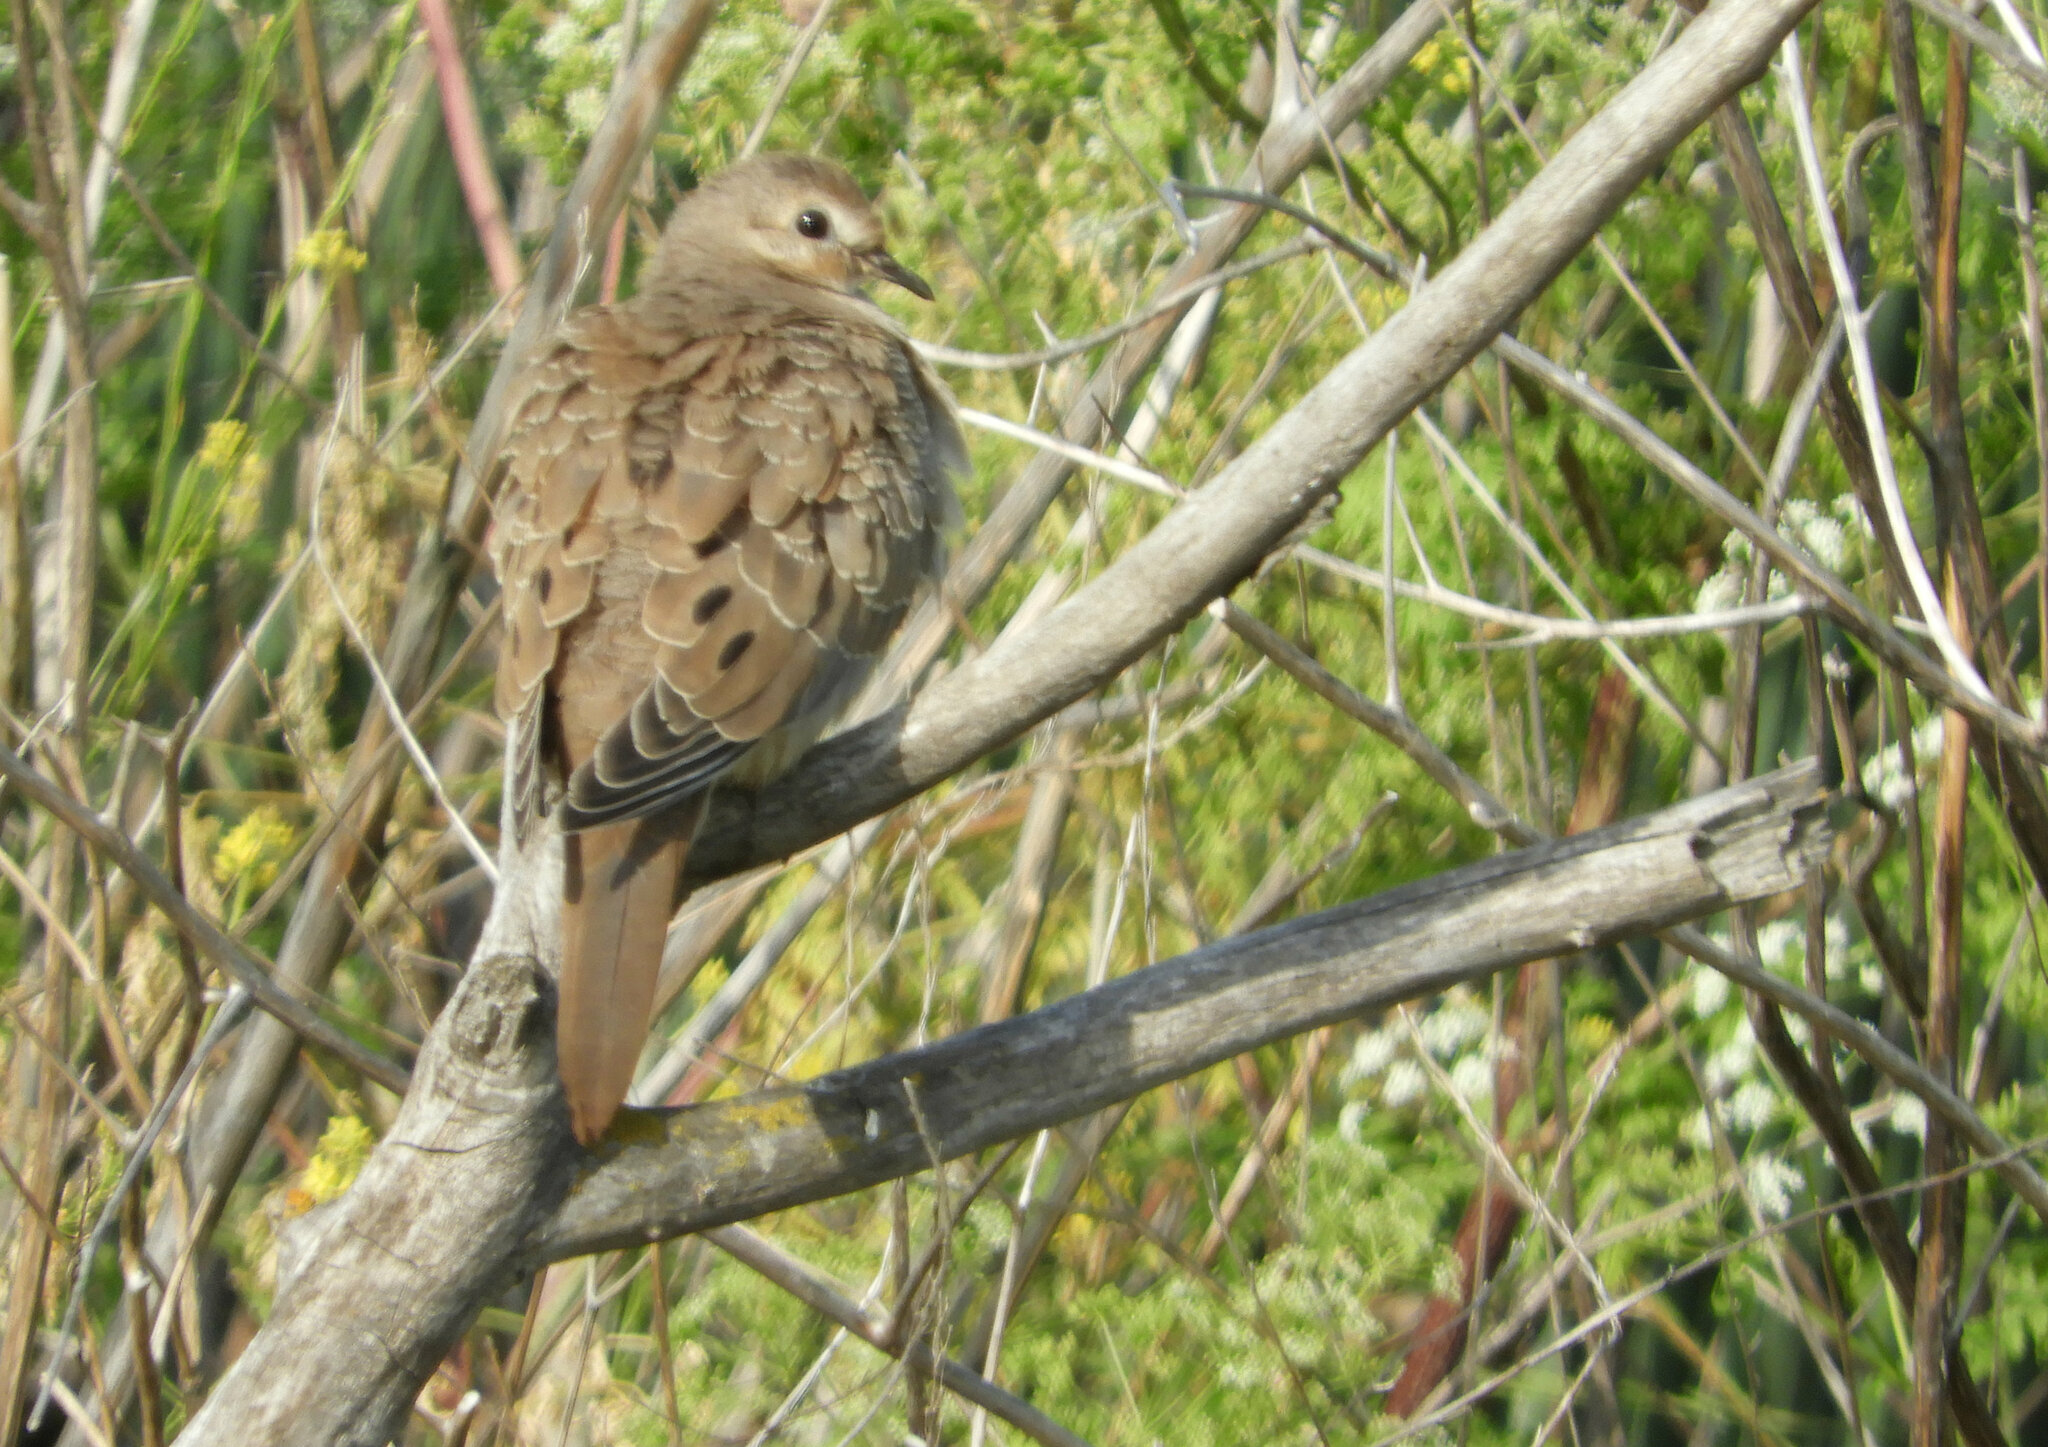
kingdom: Animalia
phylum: Chordata
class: Aves
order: Columbiformes
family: Columbidae
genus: Zenaida
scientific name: Zenaida macroura
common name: Mourning dove
